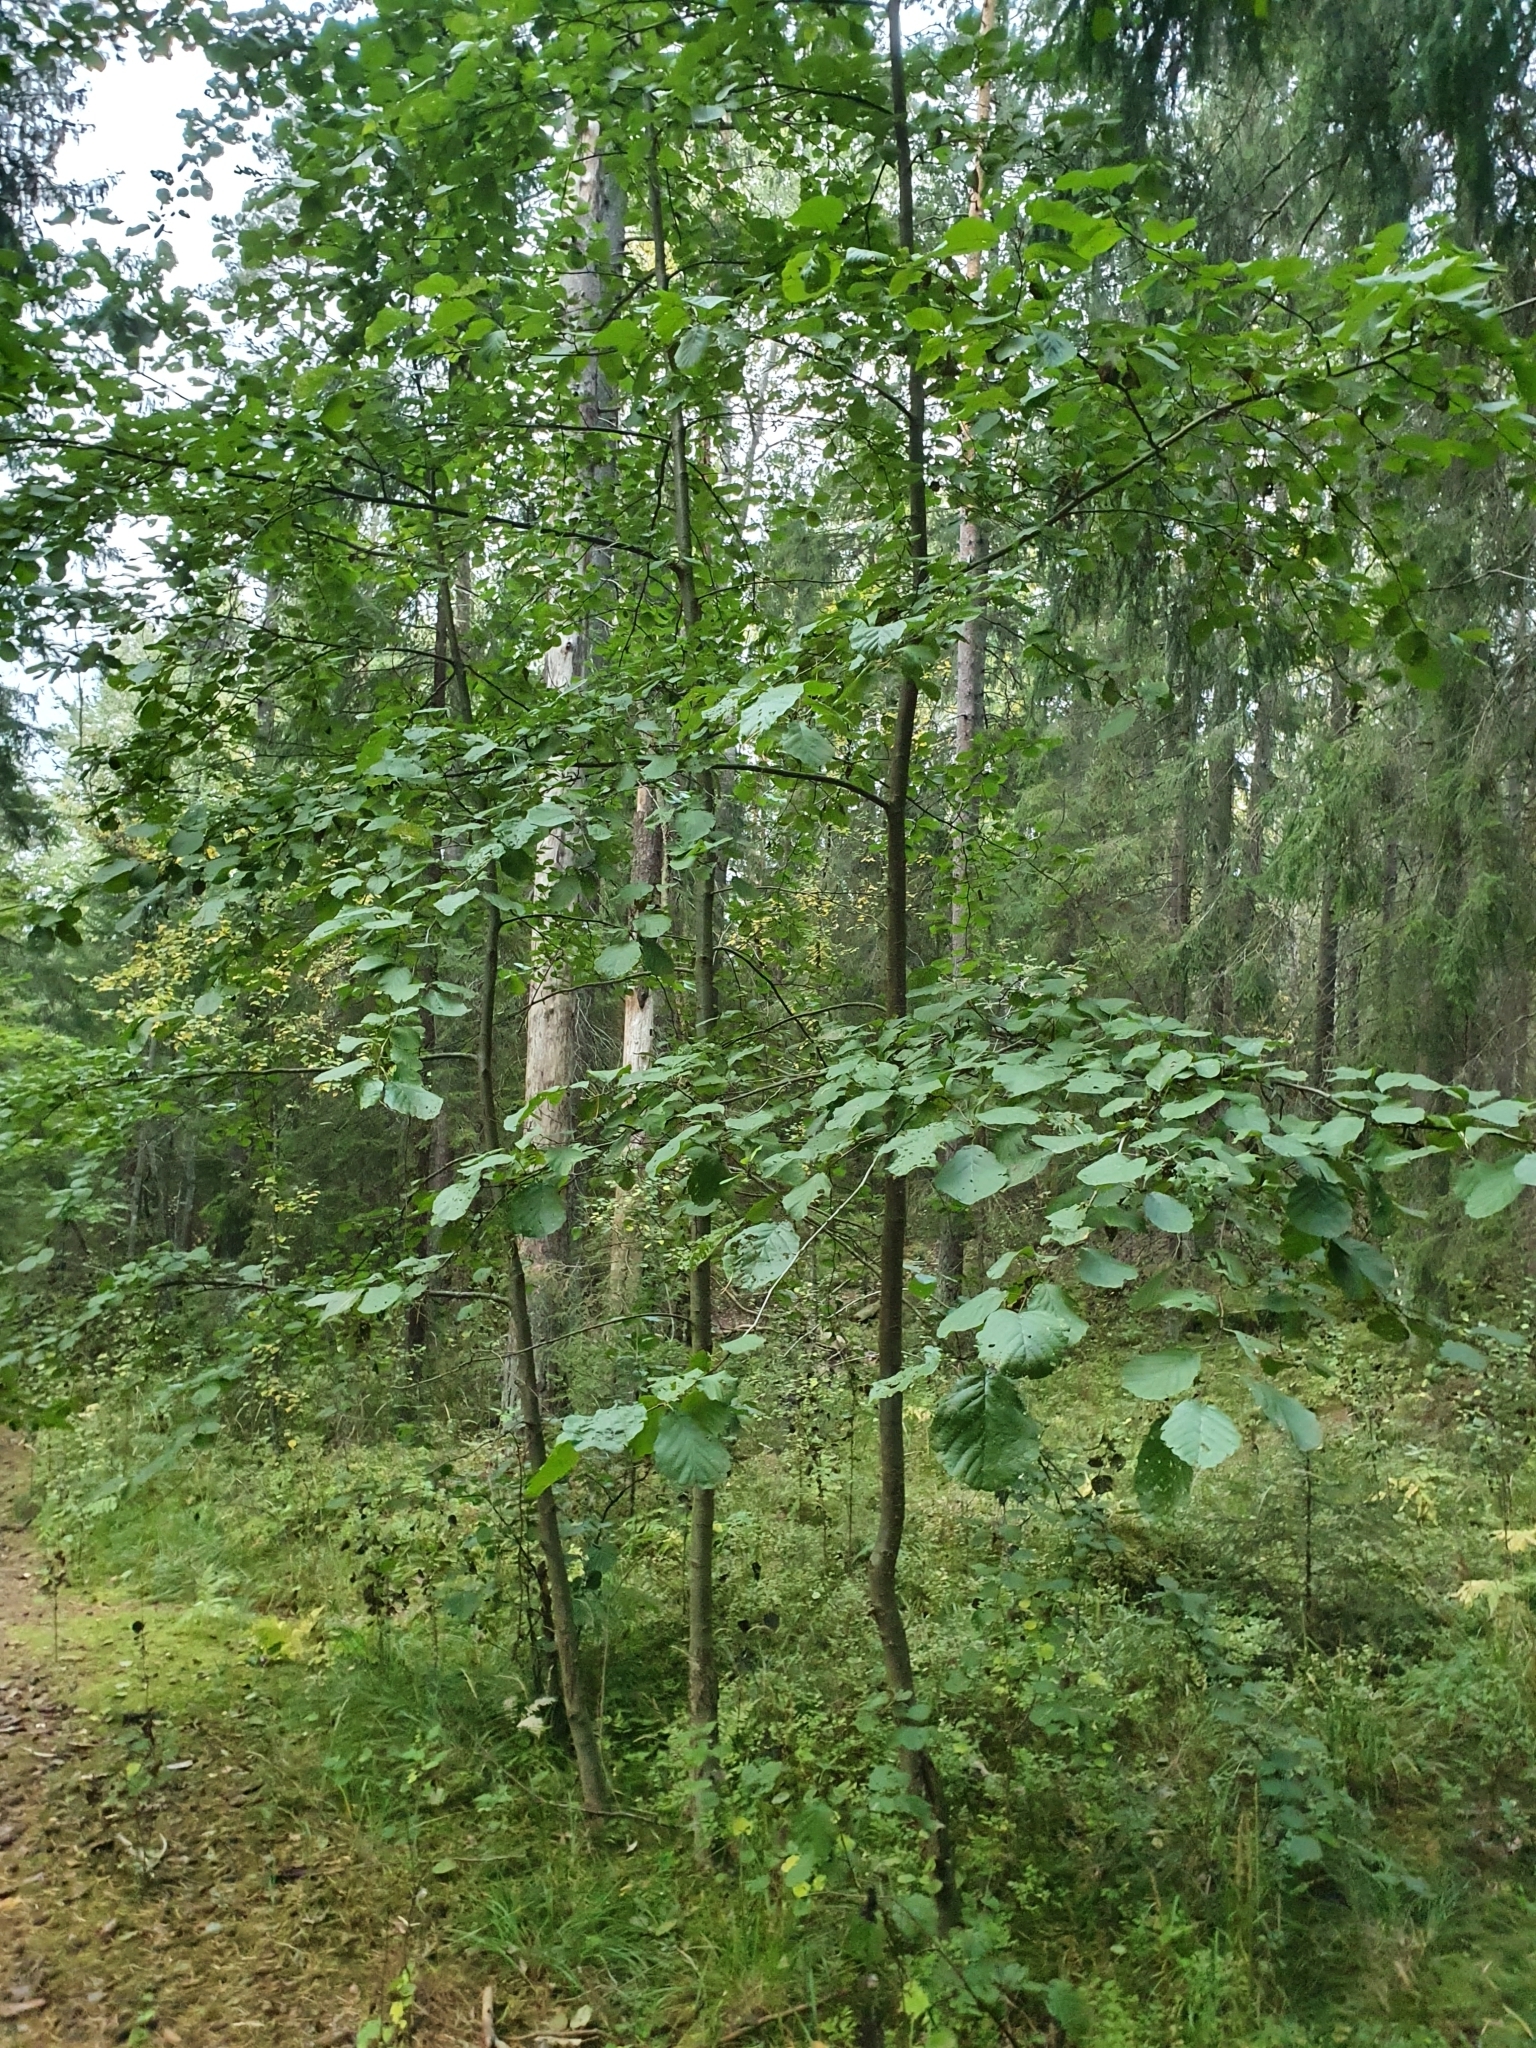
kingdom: Plantae
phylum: Tracheophyta
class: Magnoliopsida
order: Fagales
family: Betulaceae
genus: Alnus
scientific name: Alnus incana
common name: Grey alder
